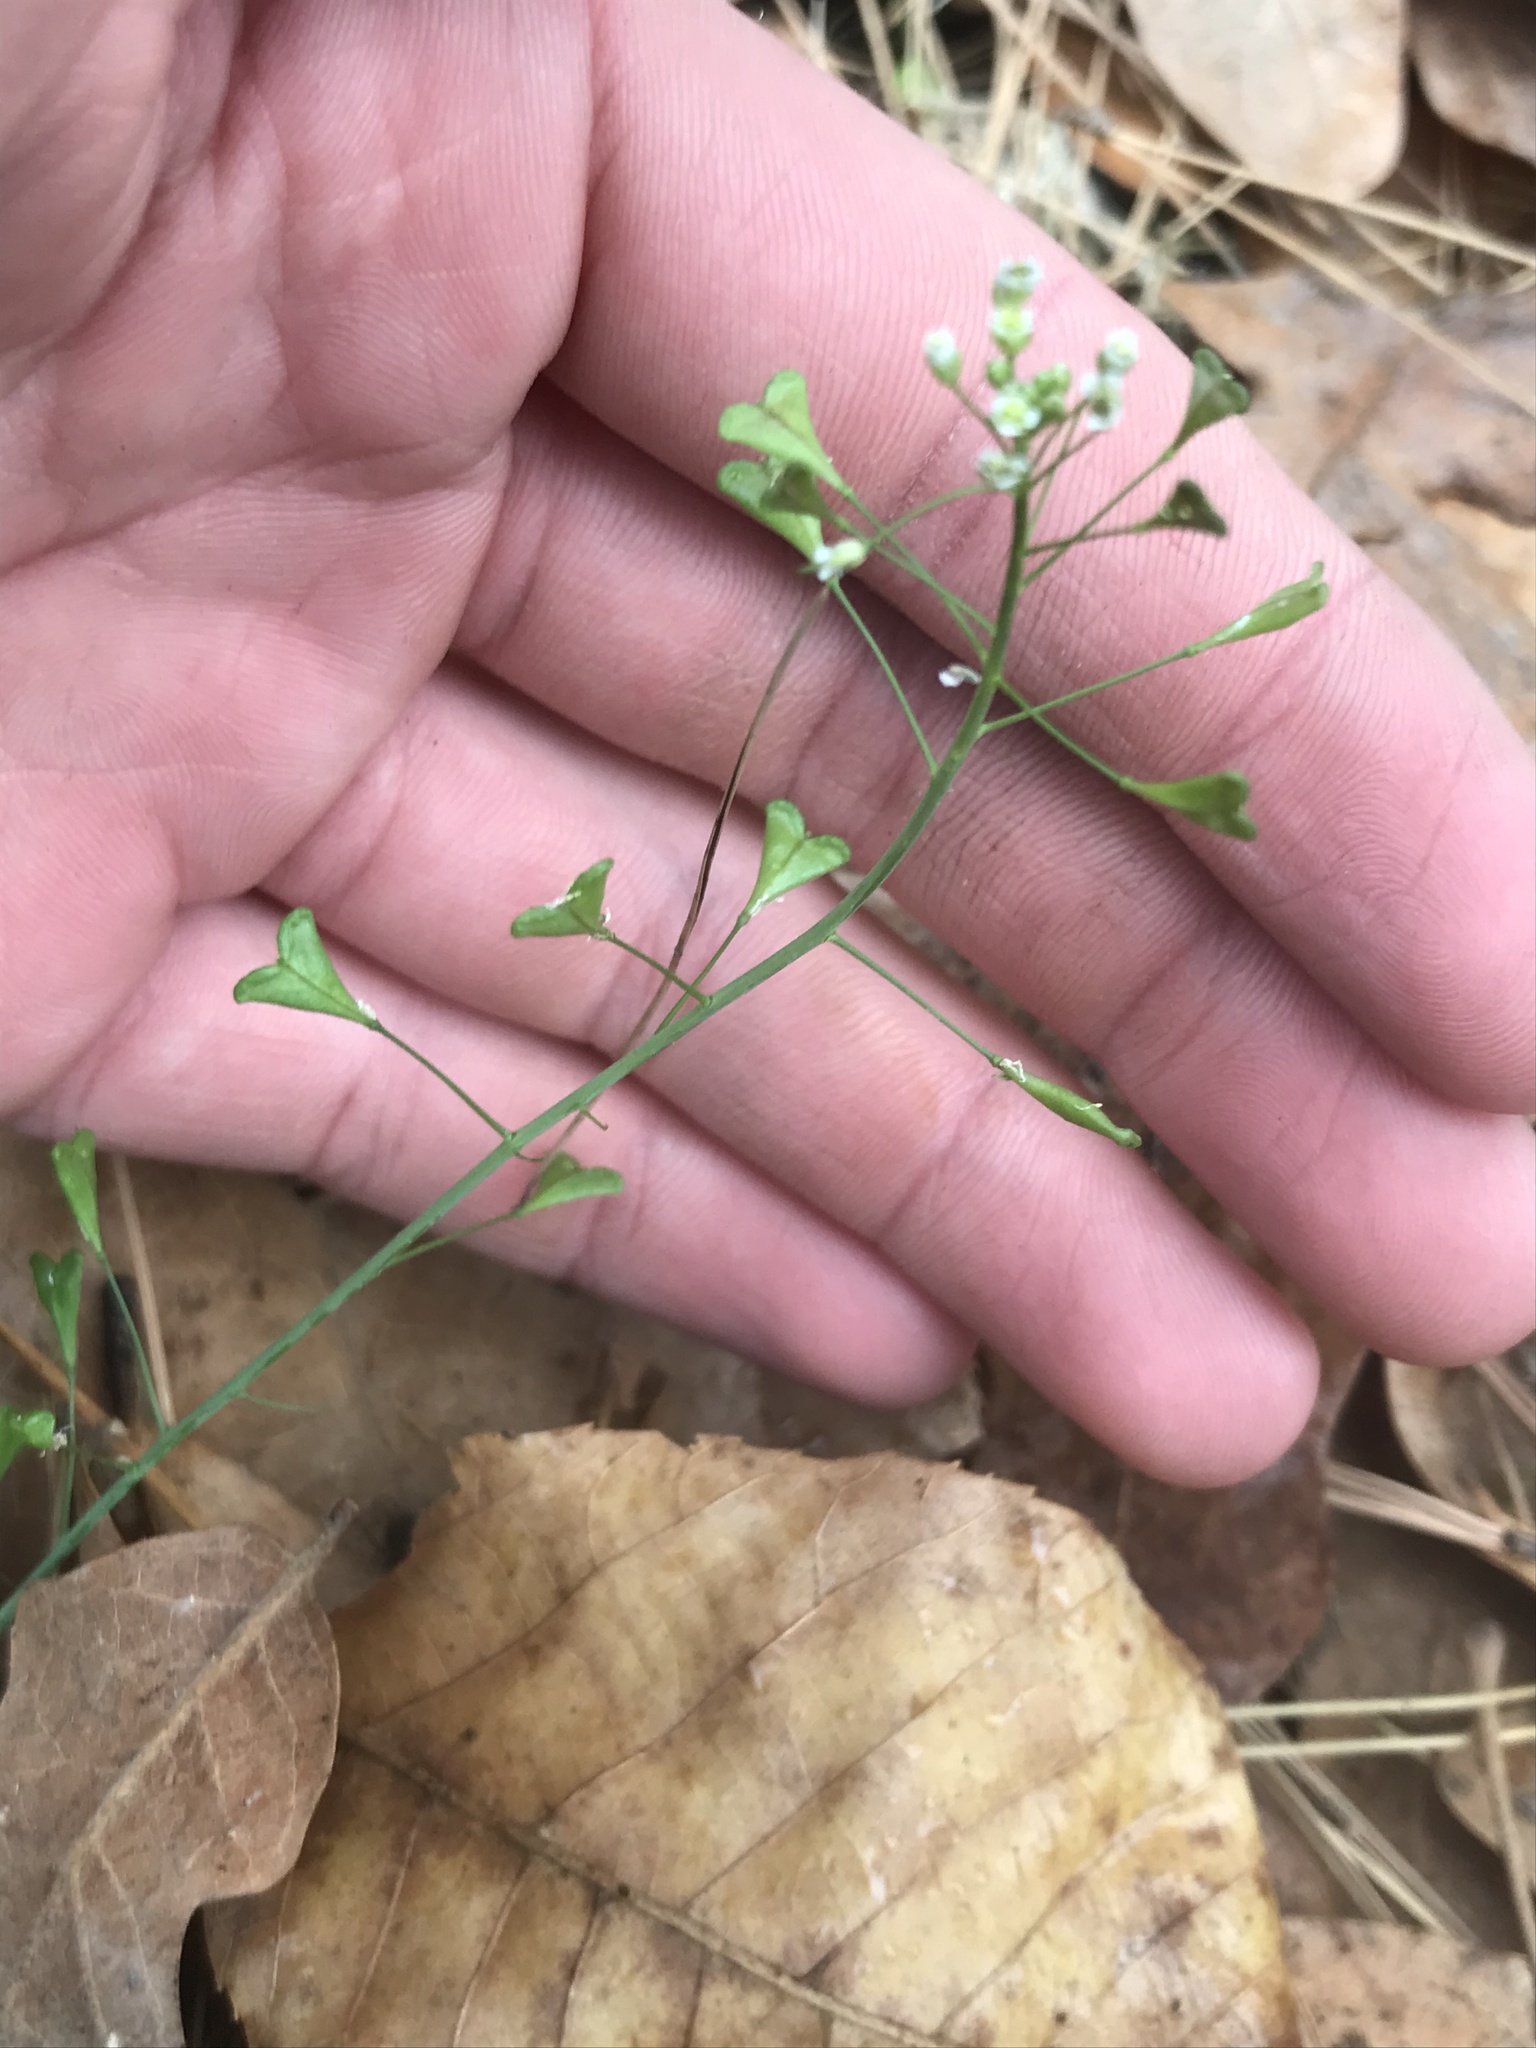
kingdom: Plantae
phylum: Tracheophyta
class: Magnoliopsida
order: Brassicales
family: Brassicaceae
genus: Capsella
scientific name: Capsella bursa-pastoris
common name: Shepherd's purse
